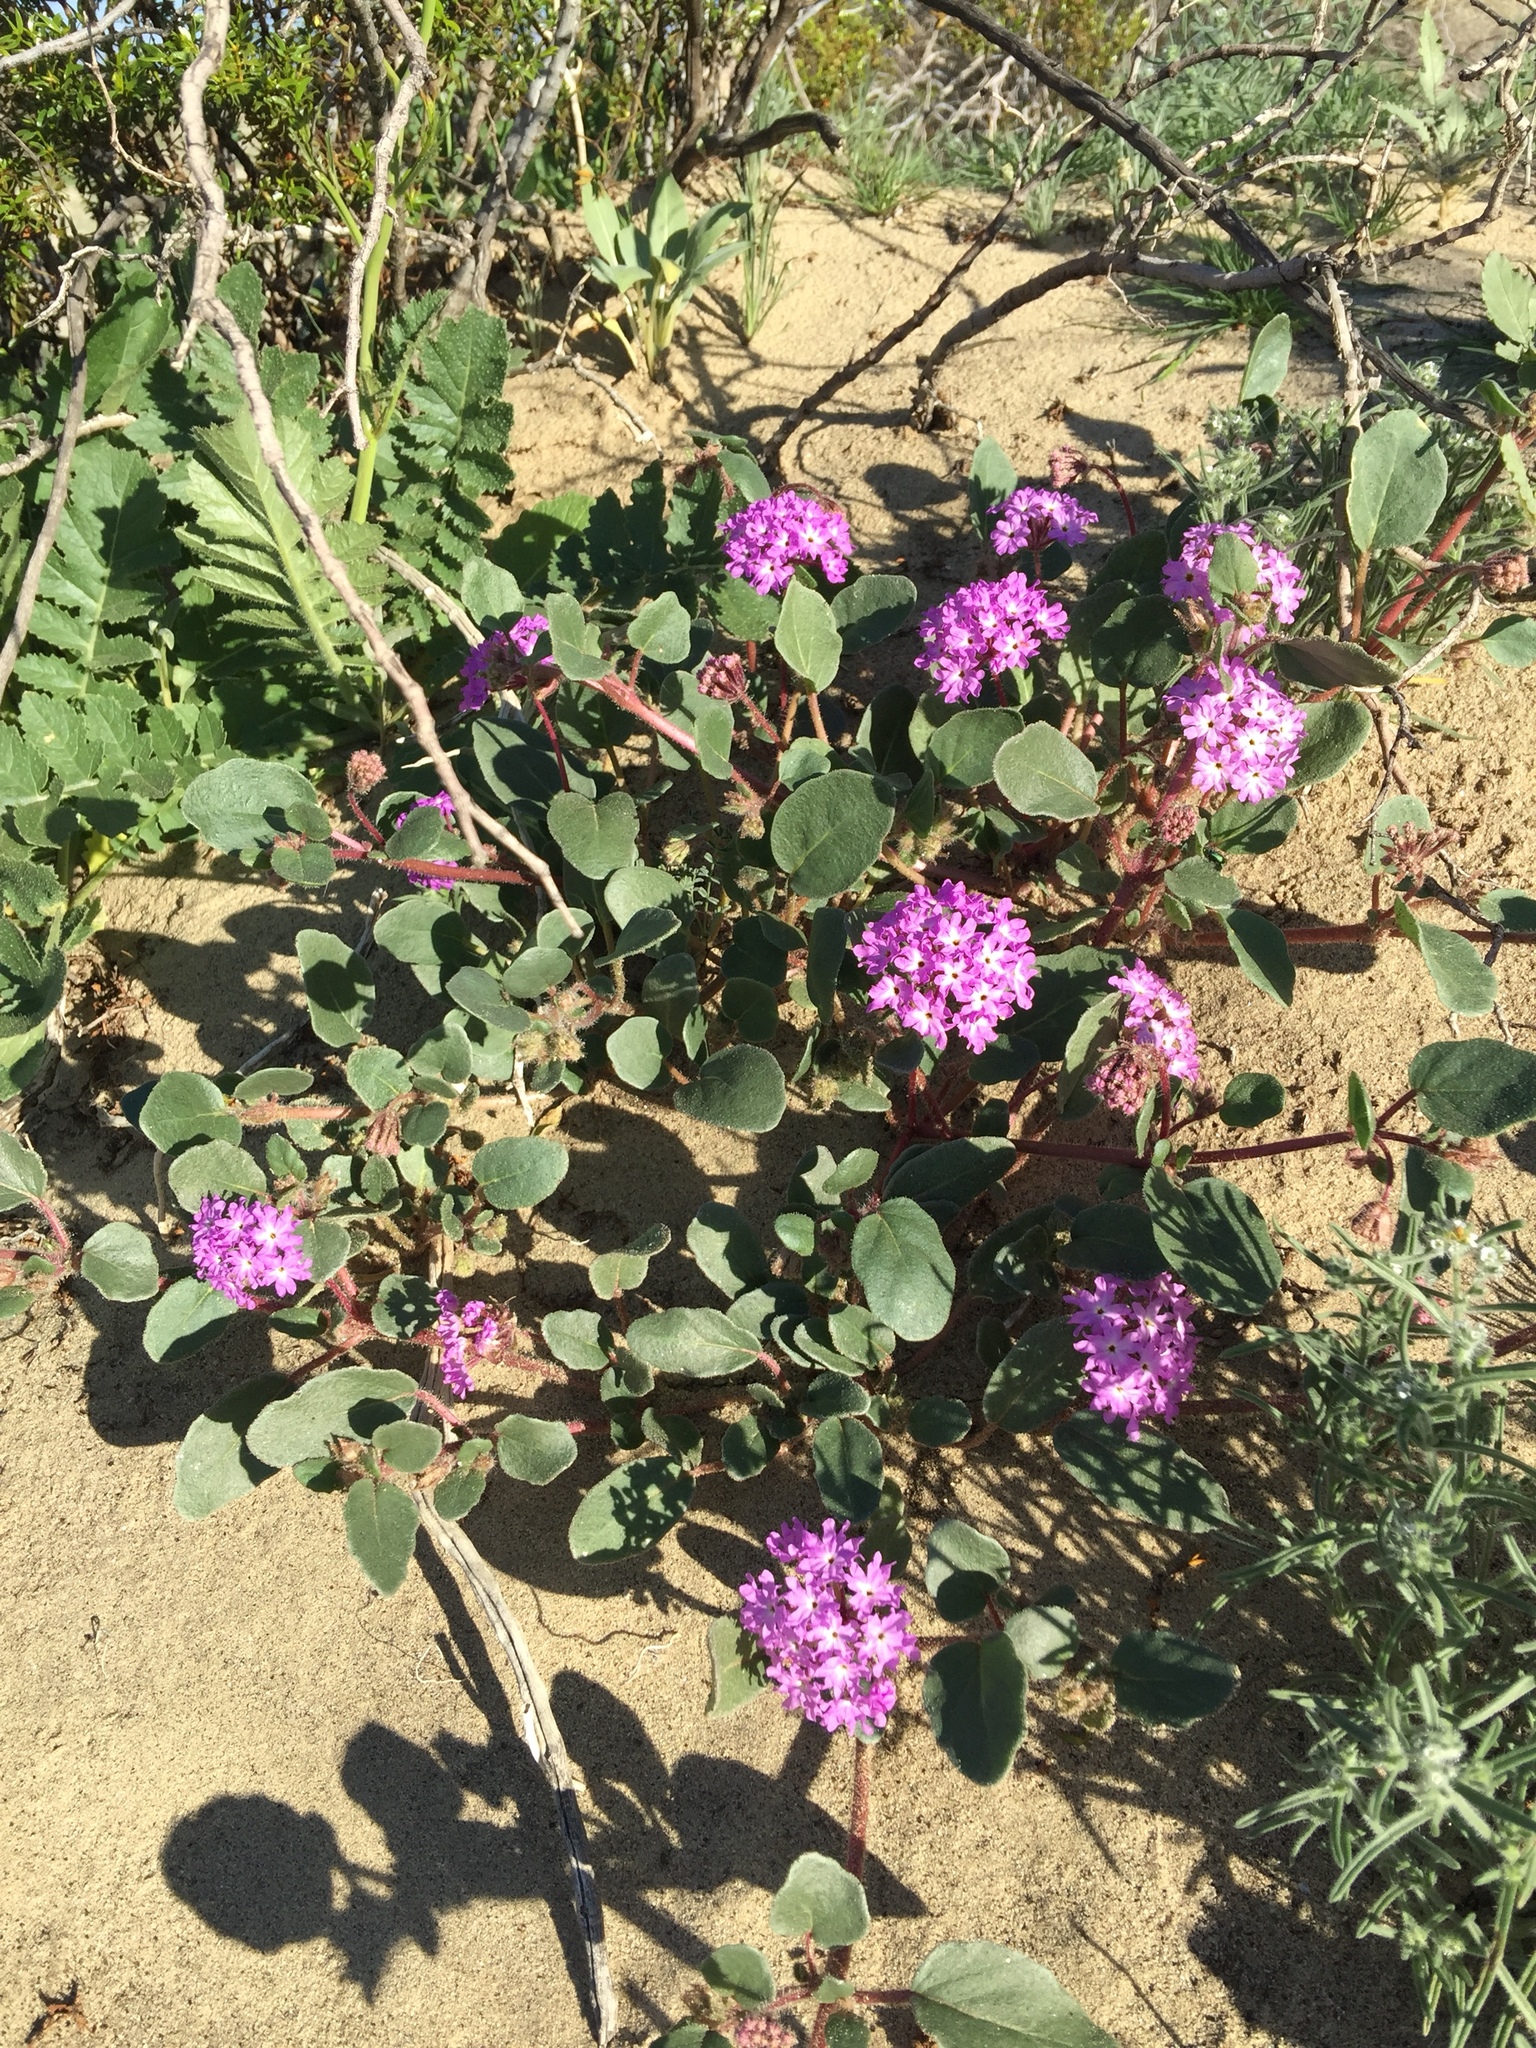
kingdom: Plantae
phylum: Tracheophyta
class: Magnoliopsida
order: Caryophyllales
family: Nyctaginaceae
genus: Abronia
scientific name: Abronia villosa
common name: Desert sand-verbena
